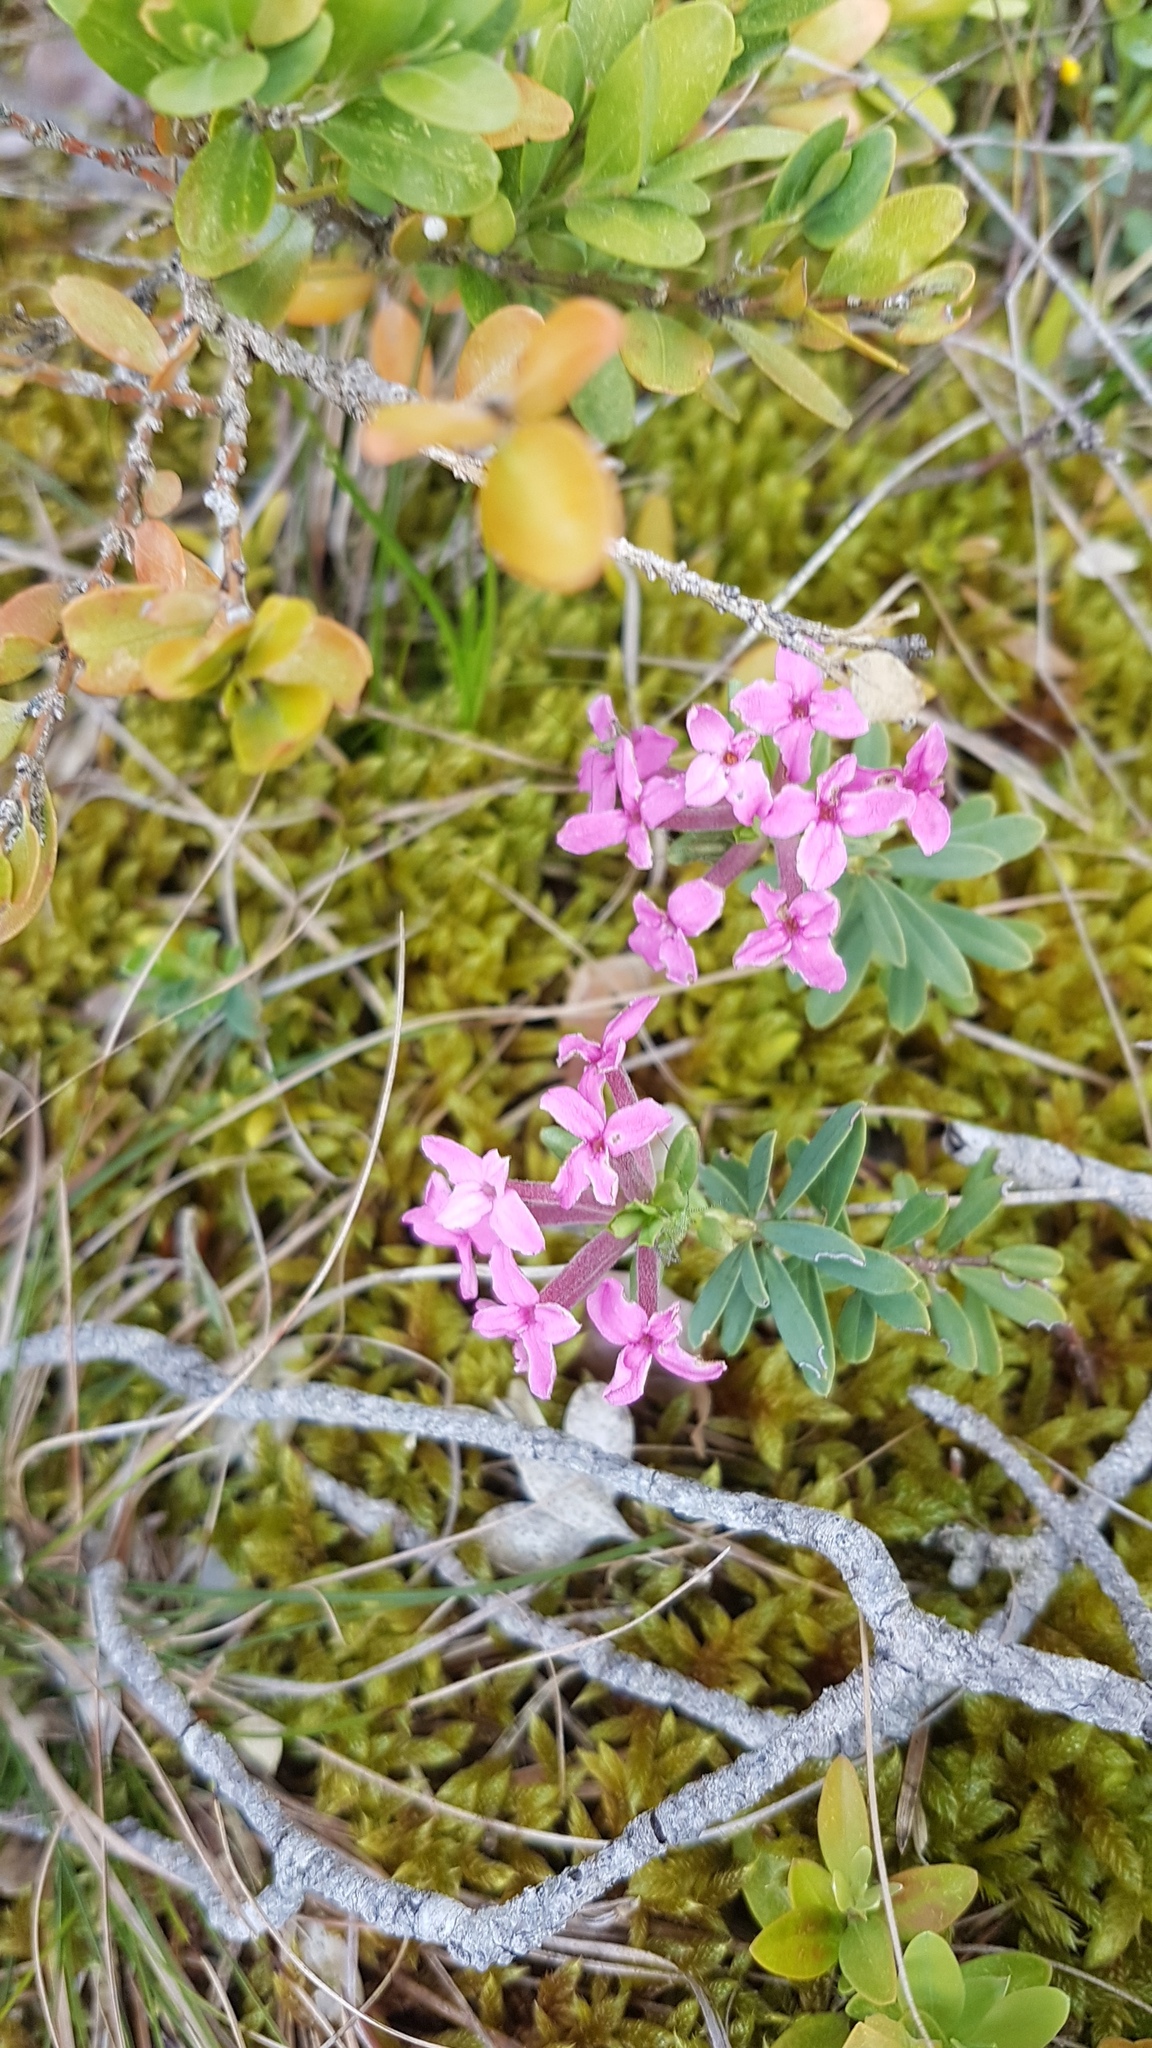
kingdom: Plantae
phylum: Tracheophyta
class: Magnoliopsida
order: Malvales
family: Thymelaeaceae
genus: Daphne
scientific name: Daphne cneorum
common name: Garland-flower
